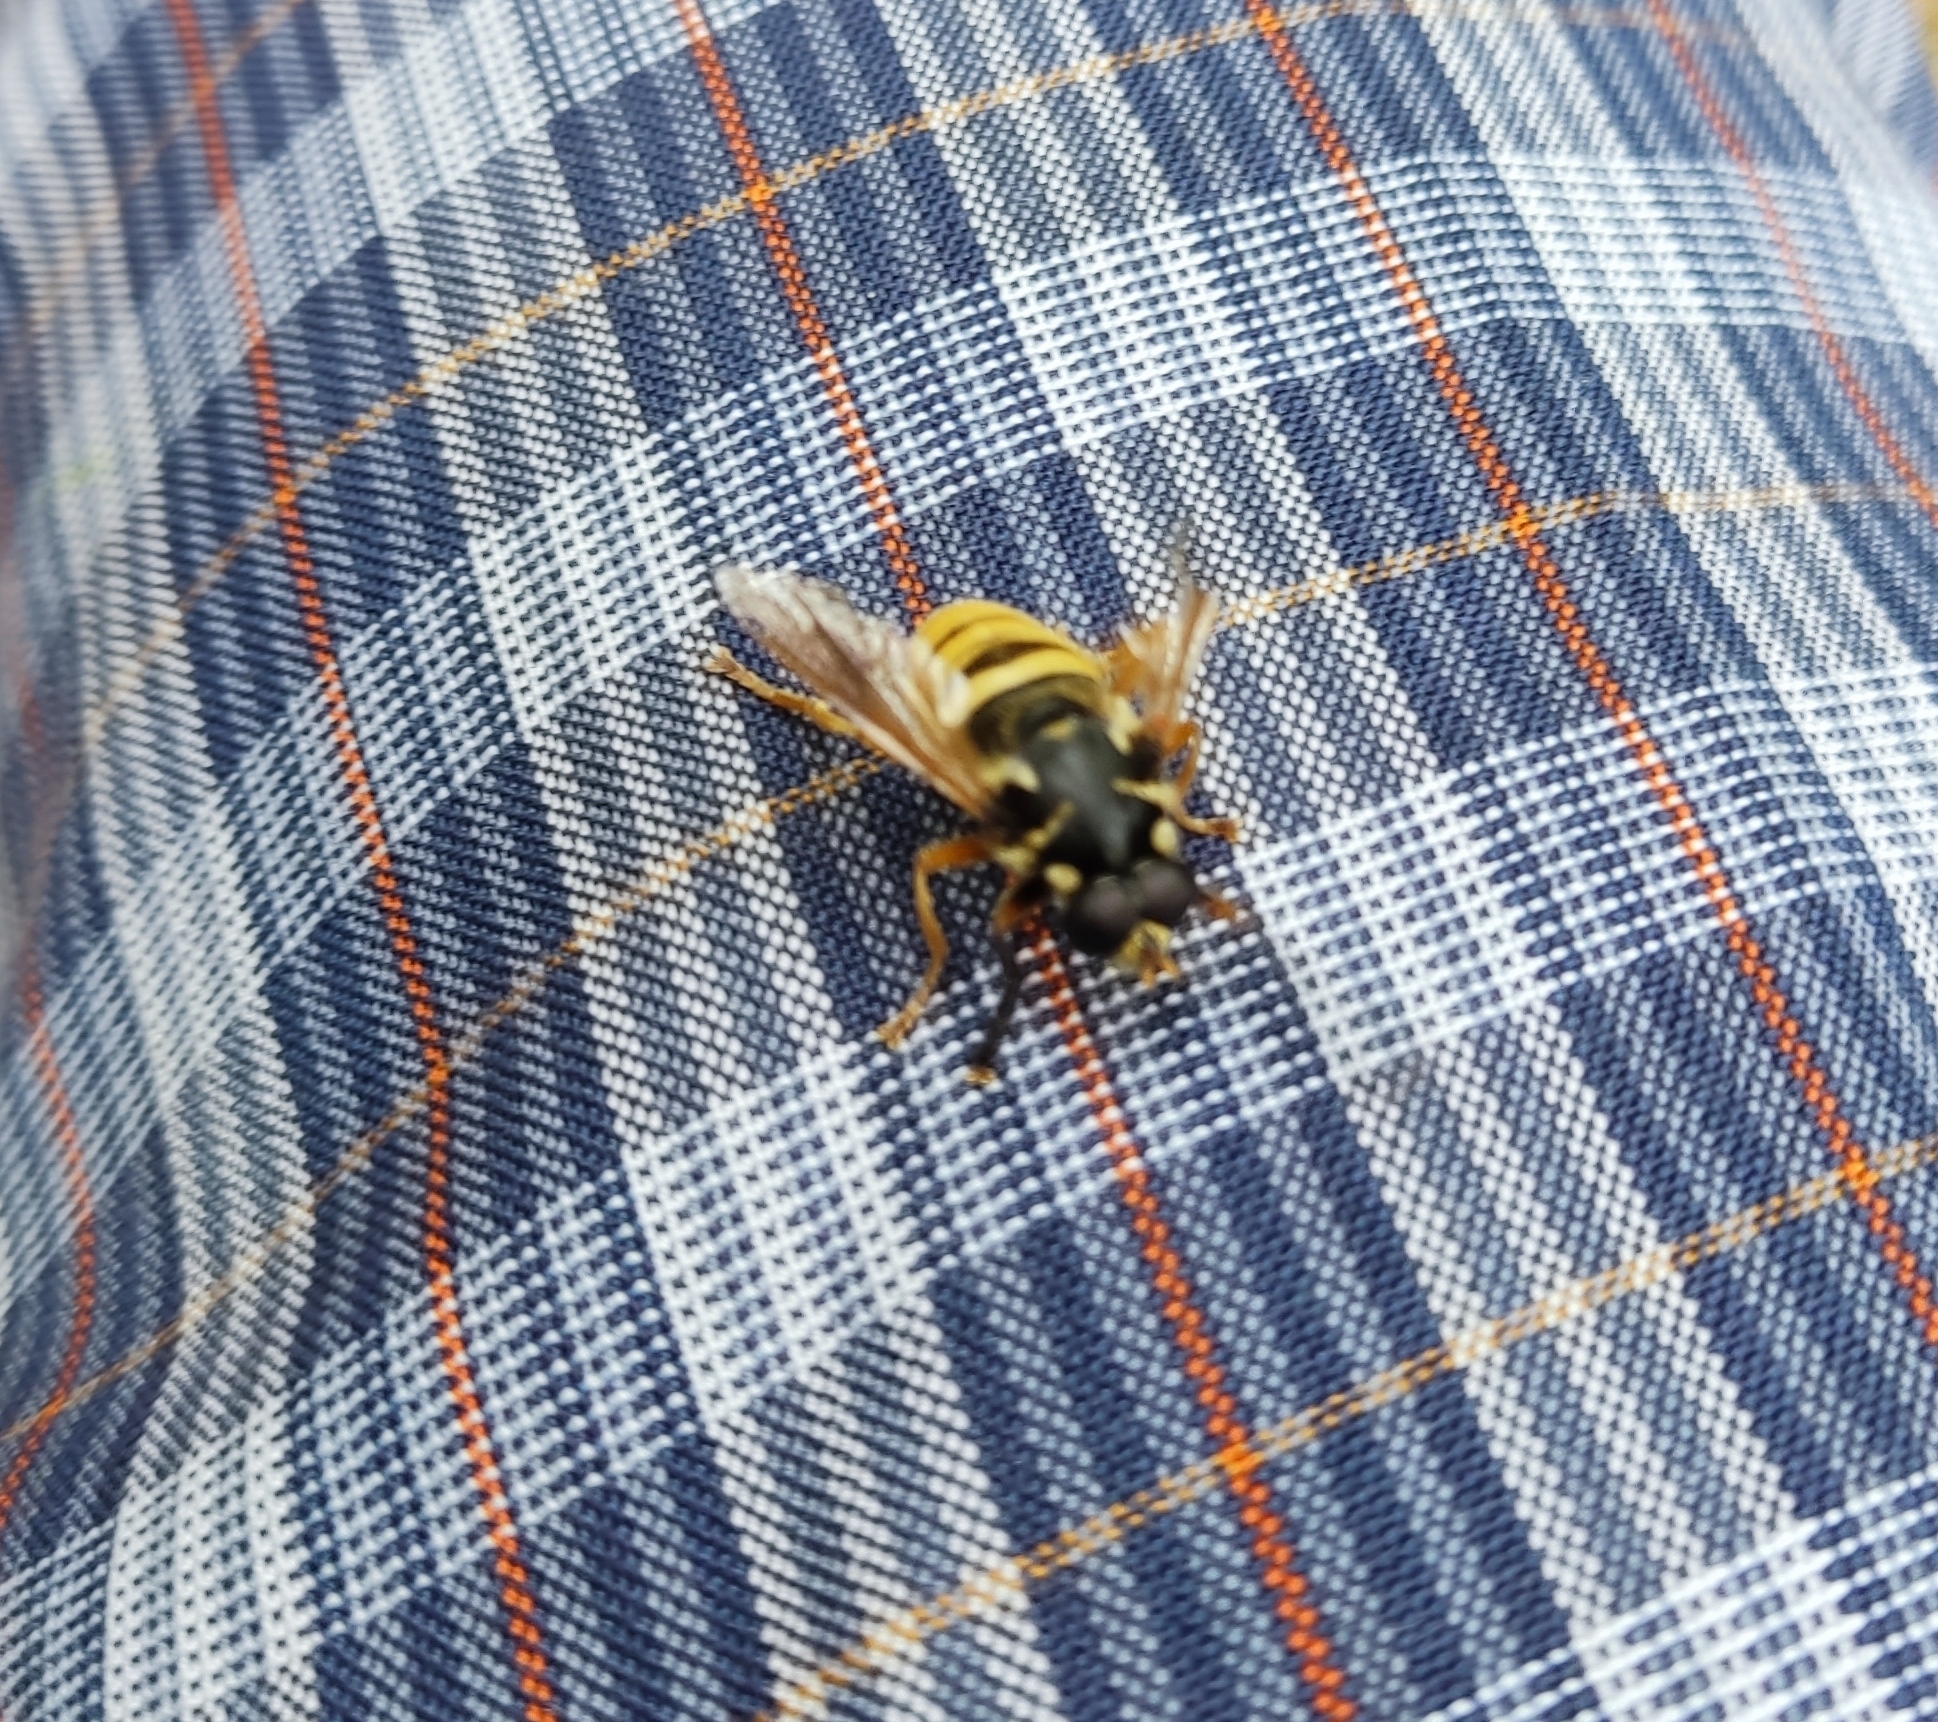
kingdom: Animalia
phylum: Arthropoda
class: Insecta
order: Diptera
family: Syrphidae
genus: Temnostoma
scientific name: Temnostoma vespiforme
